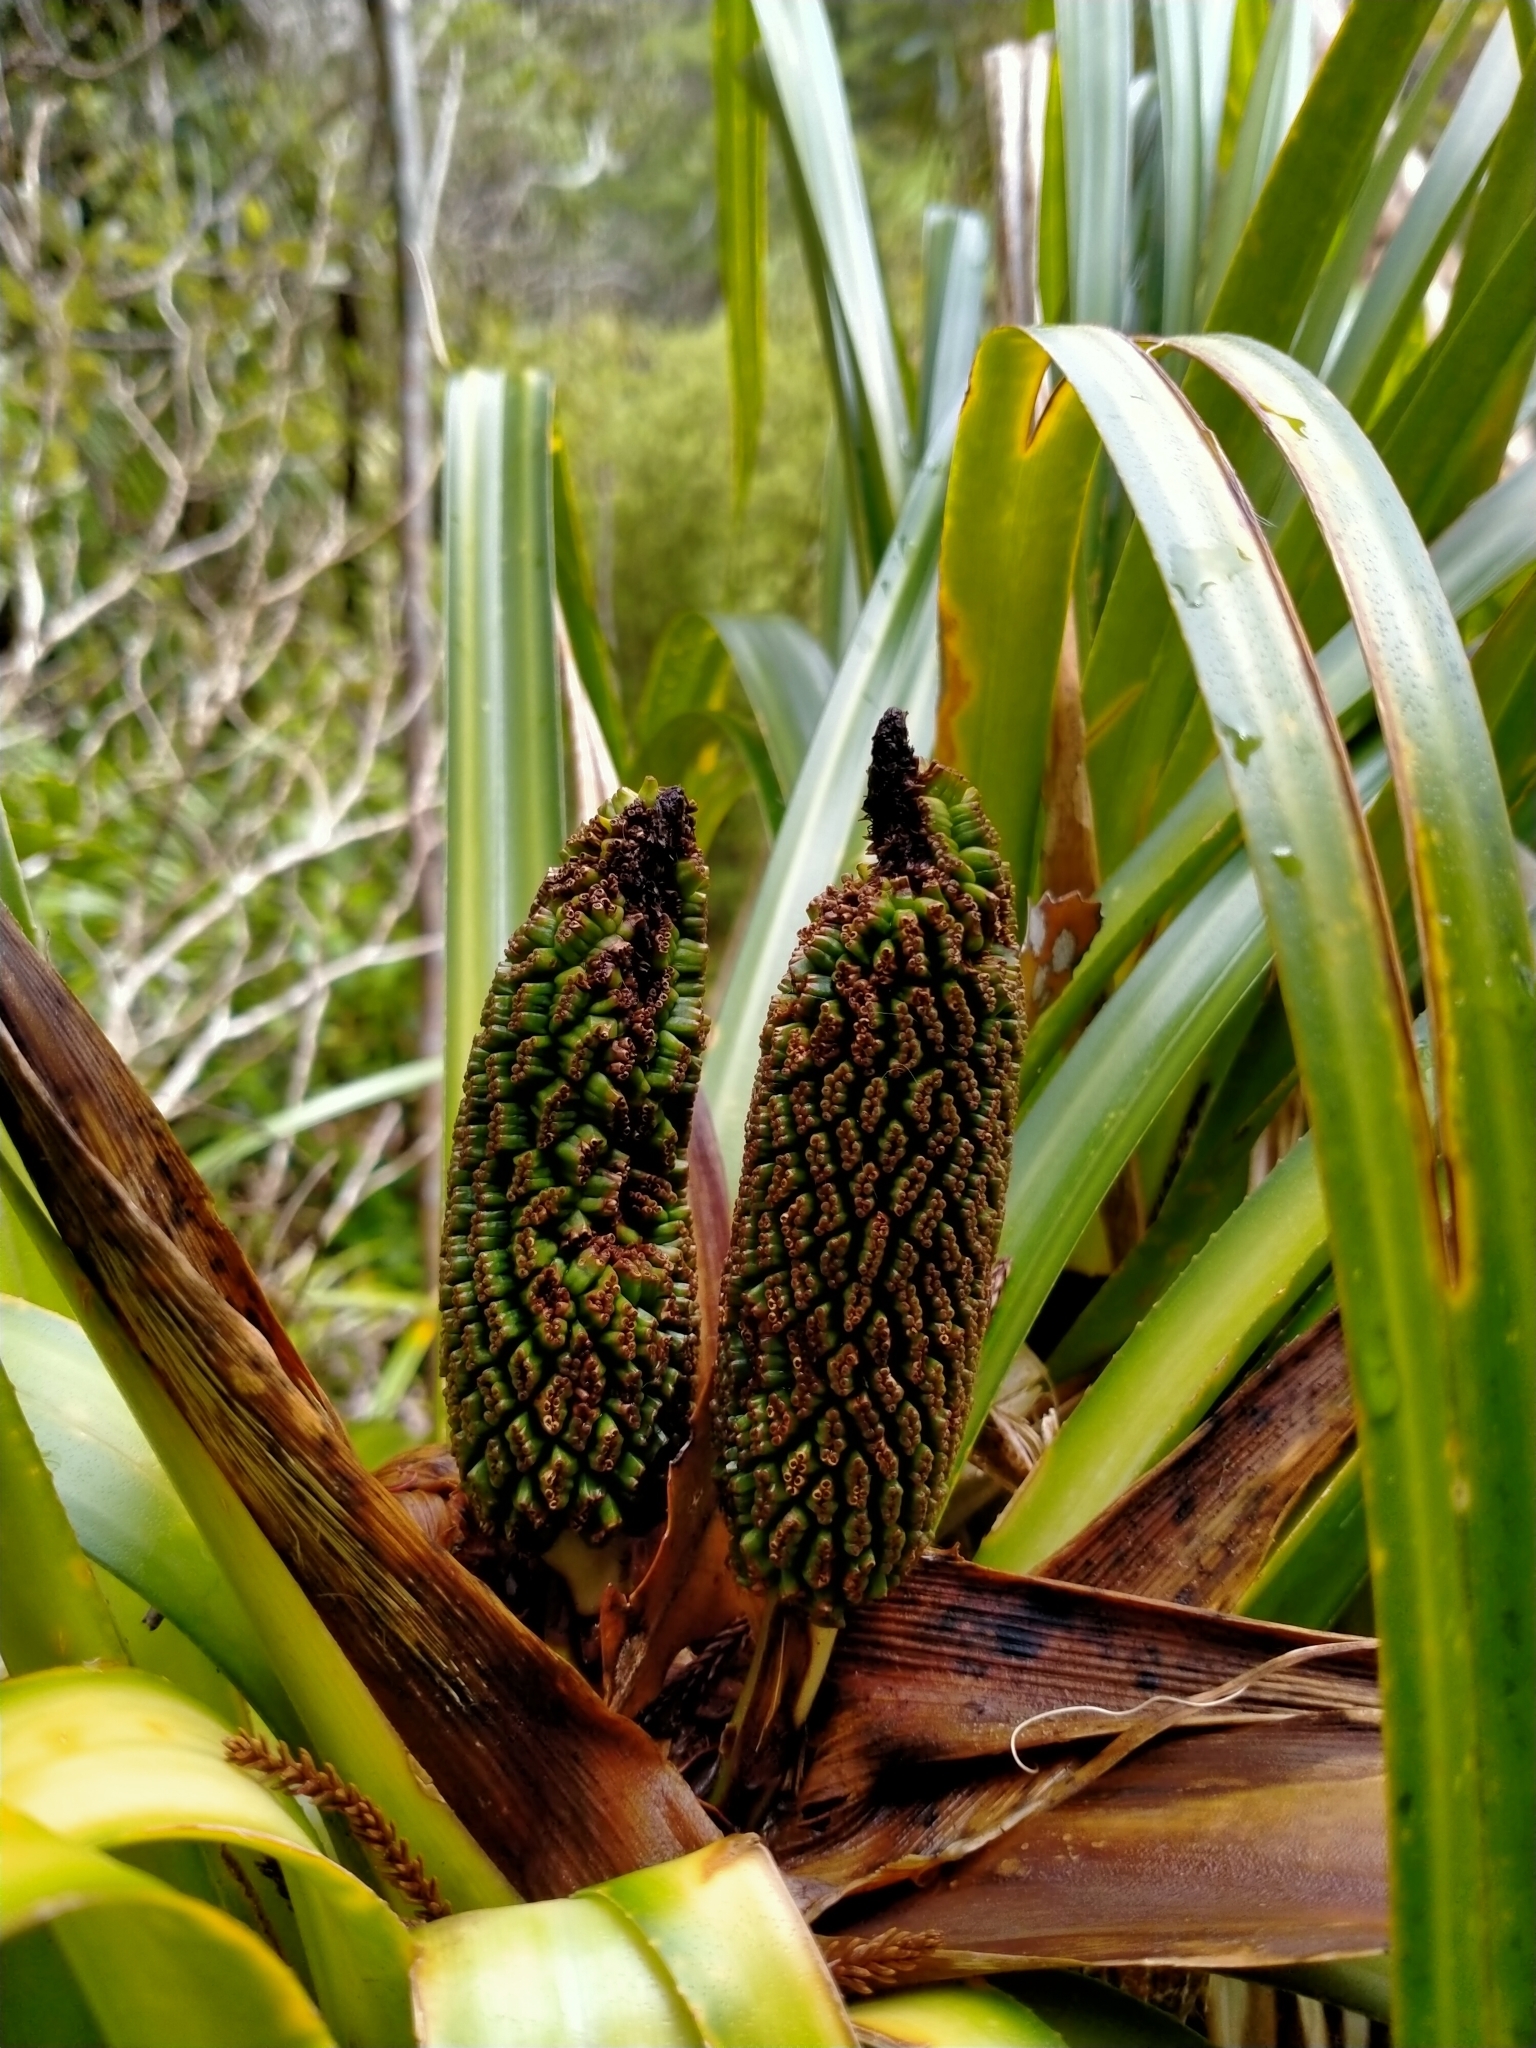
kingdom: Plantae
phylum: Tracheophyta
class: Liliopsida
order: Pandanales
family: Pandanaceae
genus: Freycinetia
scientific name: Freycinetia banksii
